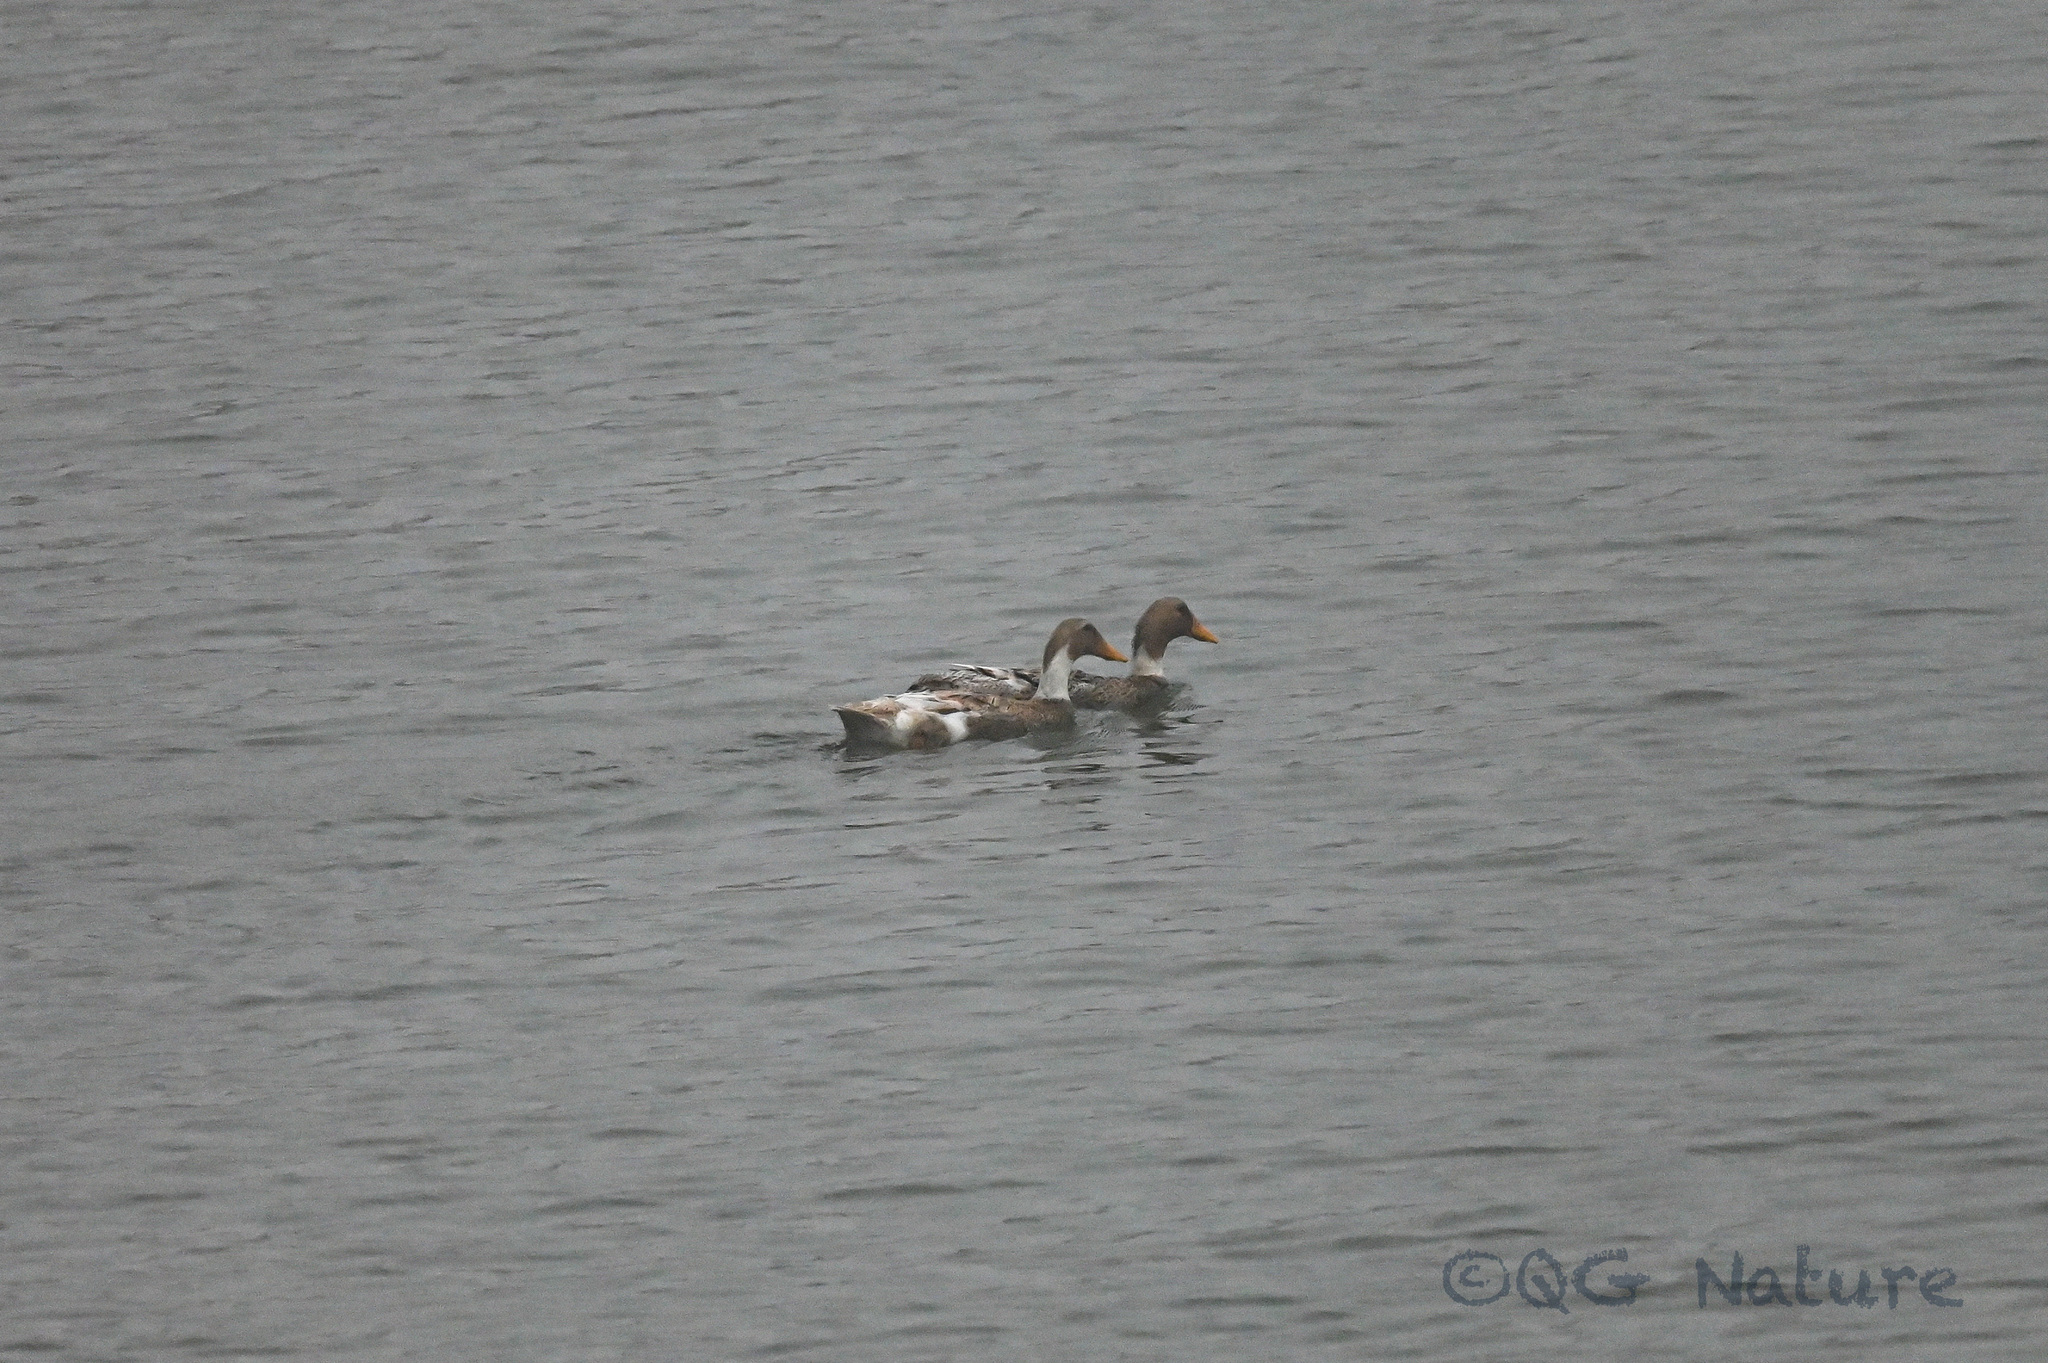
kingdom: Animalia
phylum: Chordata
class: Aves
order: Anseriformes
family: Anatidae
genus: Anas
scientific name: Anas platyrhynchos
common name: Mallard
